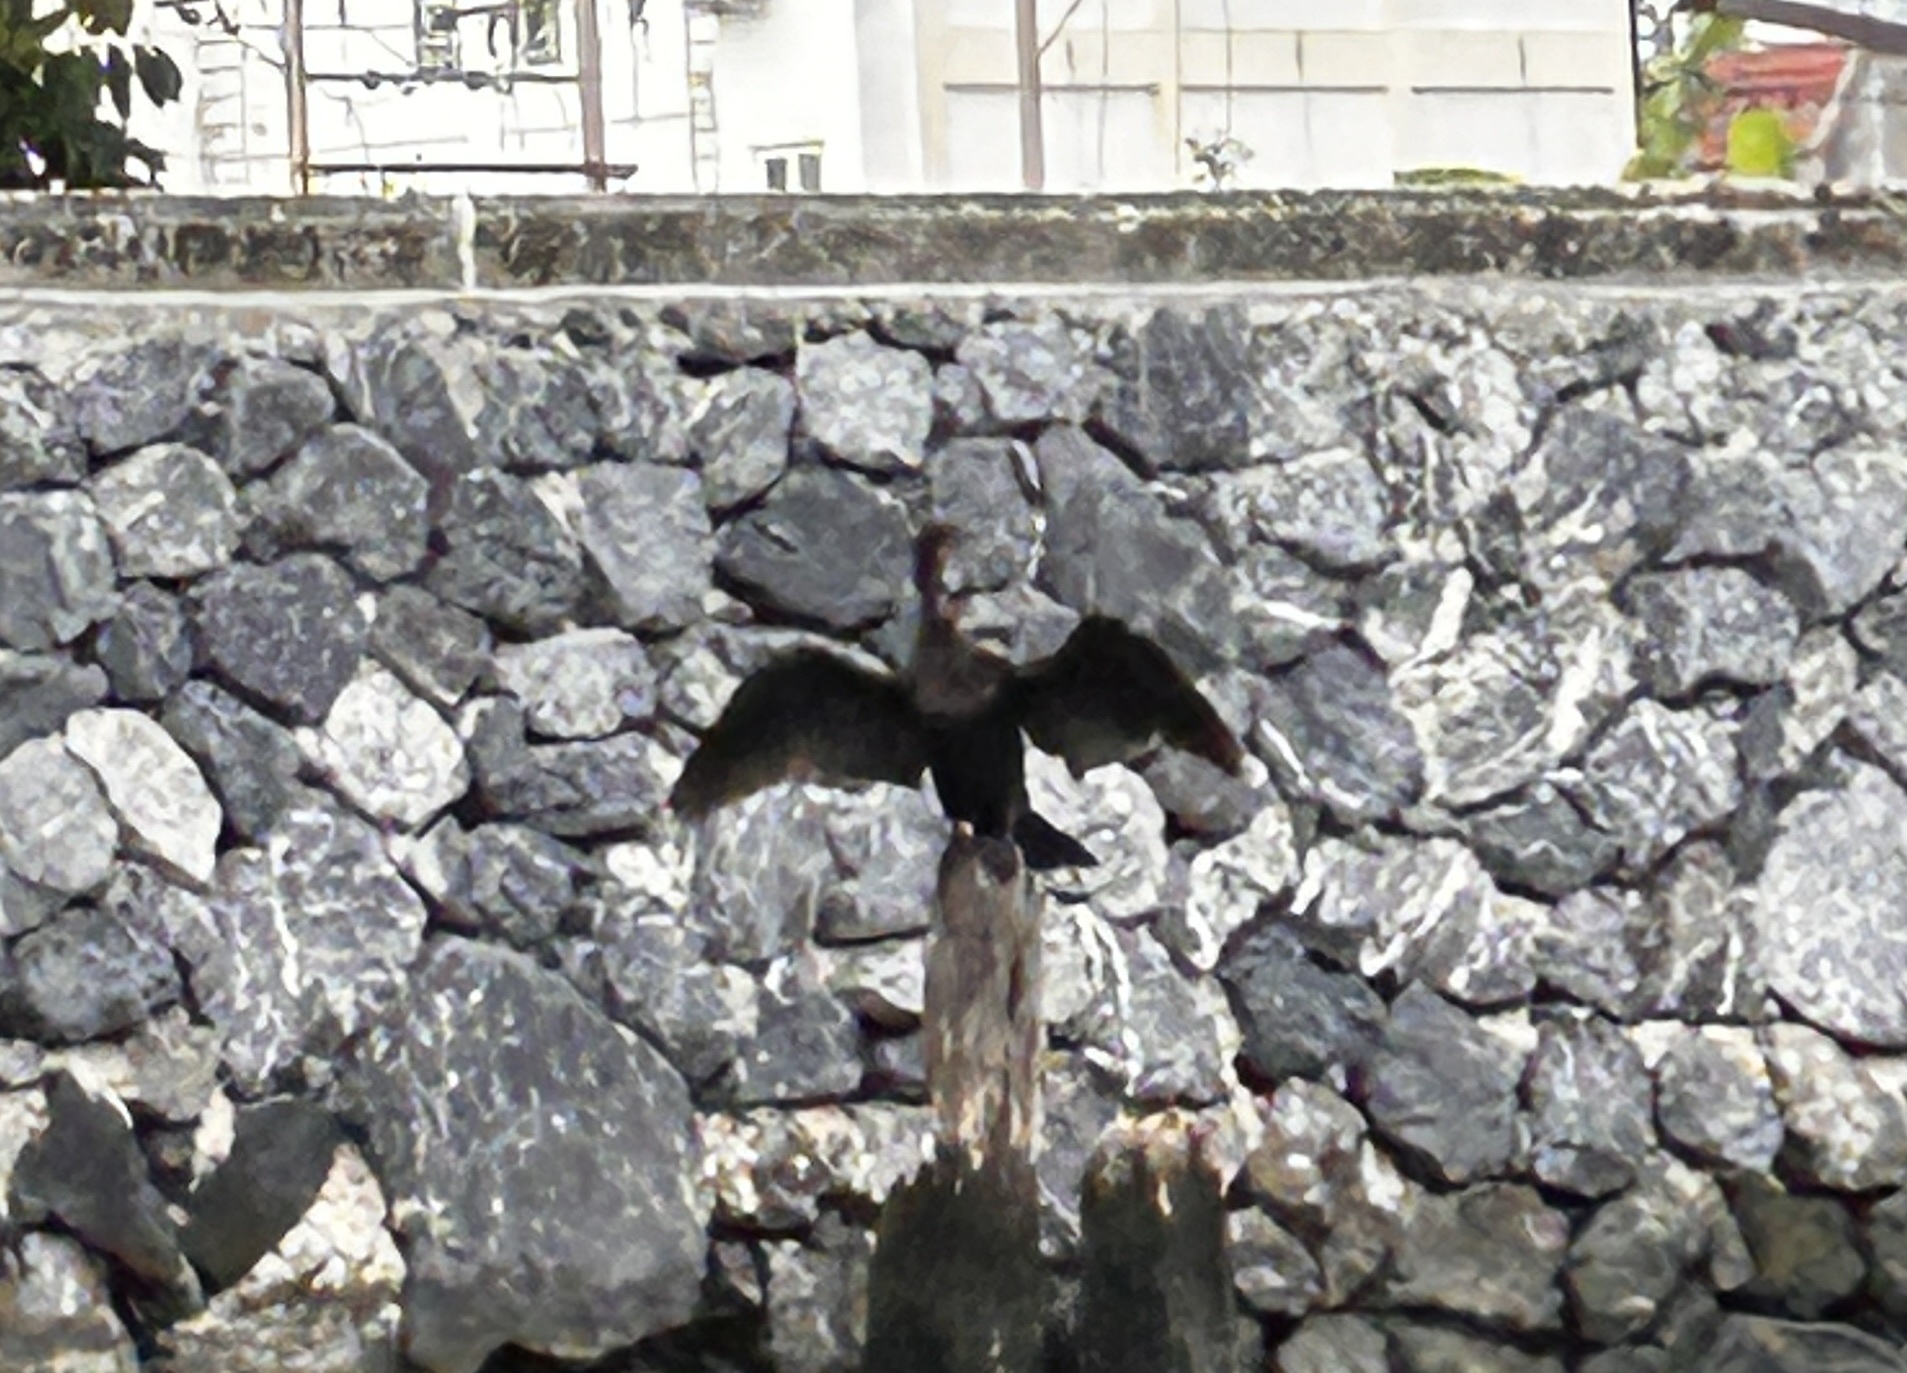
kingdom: Animalia
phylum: Chordata
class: Aves
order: Suliformes
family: Phalacrocoracidae
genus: Microcarbo
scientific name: Microcarbo niger
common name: Little cormorant
